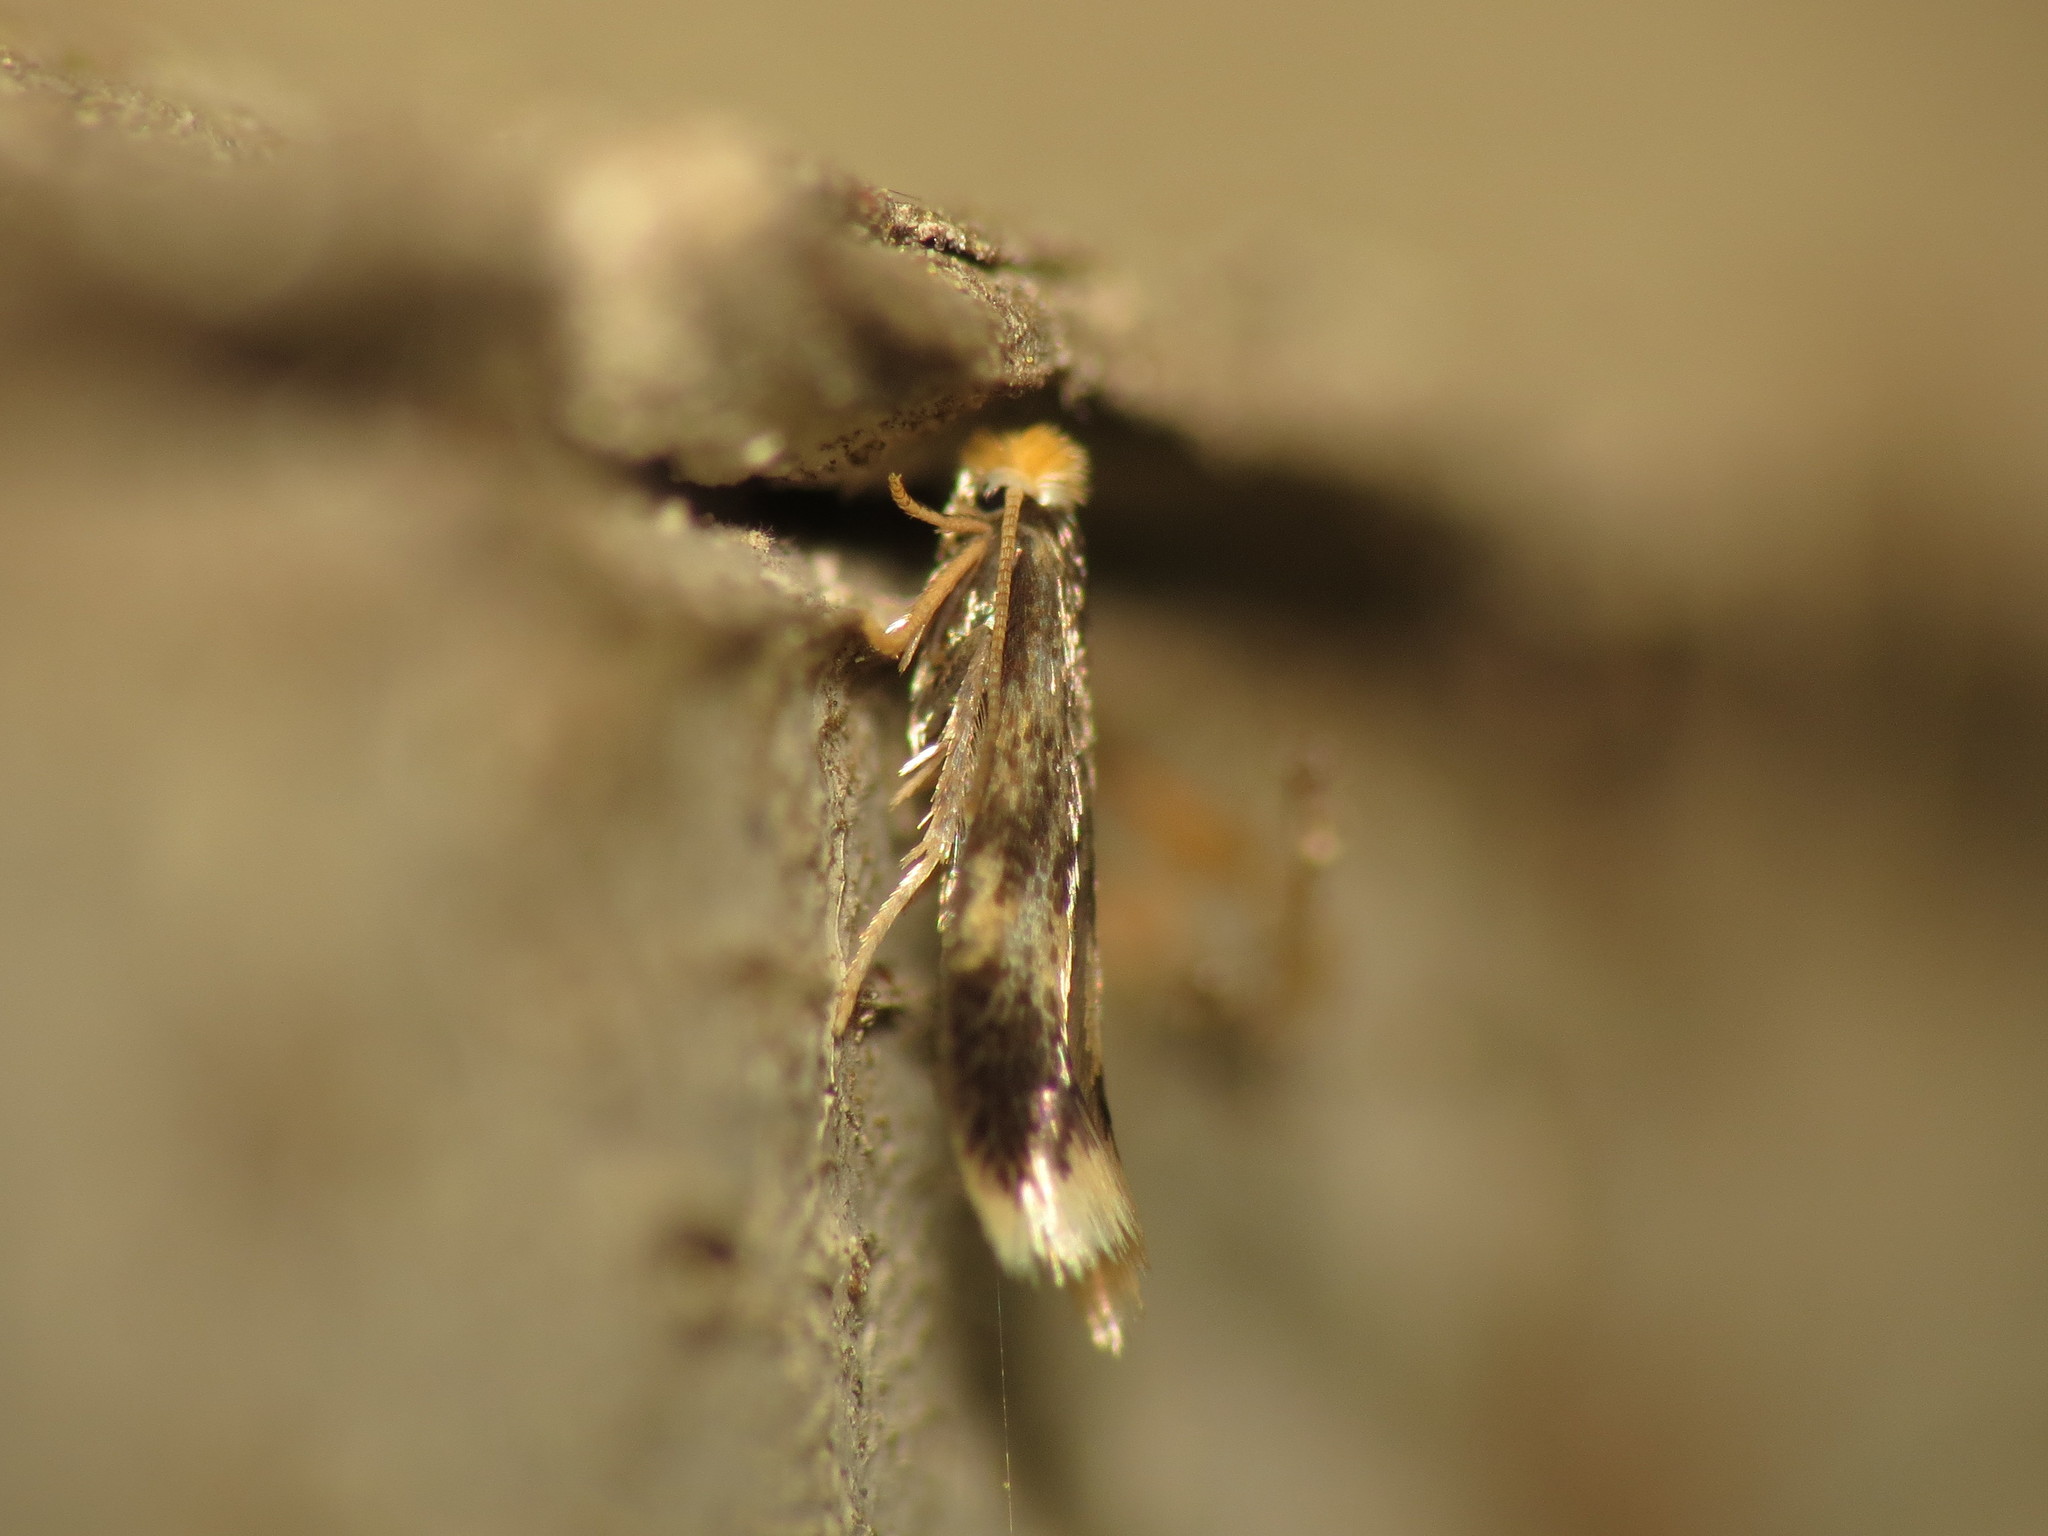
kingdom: Animalia
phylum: Arthropoda
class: Insecta
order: Lepidoptera
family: Nepticulidae
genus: Stigmella
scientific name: Stigmella floslactella
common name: Coarse hazel pigmy
